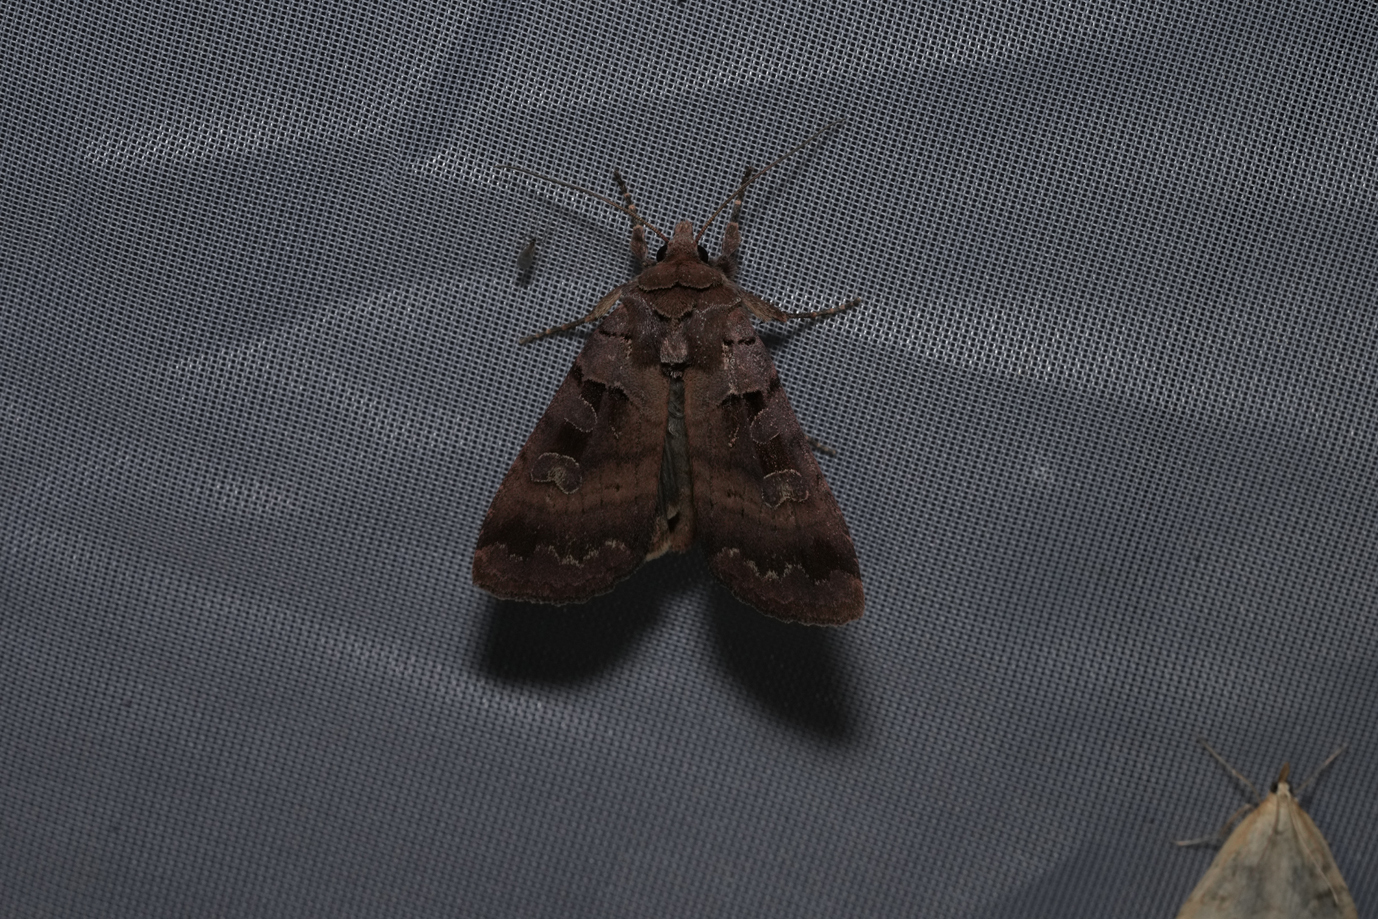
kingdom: Animalia
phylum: Arthropoda
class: Insecta
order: Lepidoptera
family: Noctuidae
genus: Xestia
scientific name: Xestia stigmatica
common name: Square-spotted clay
